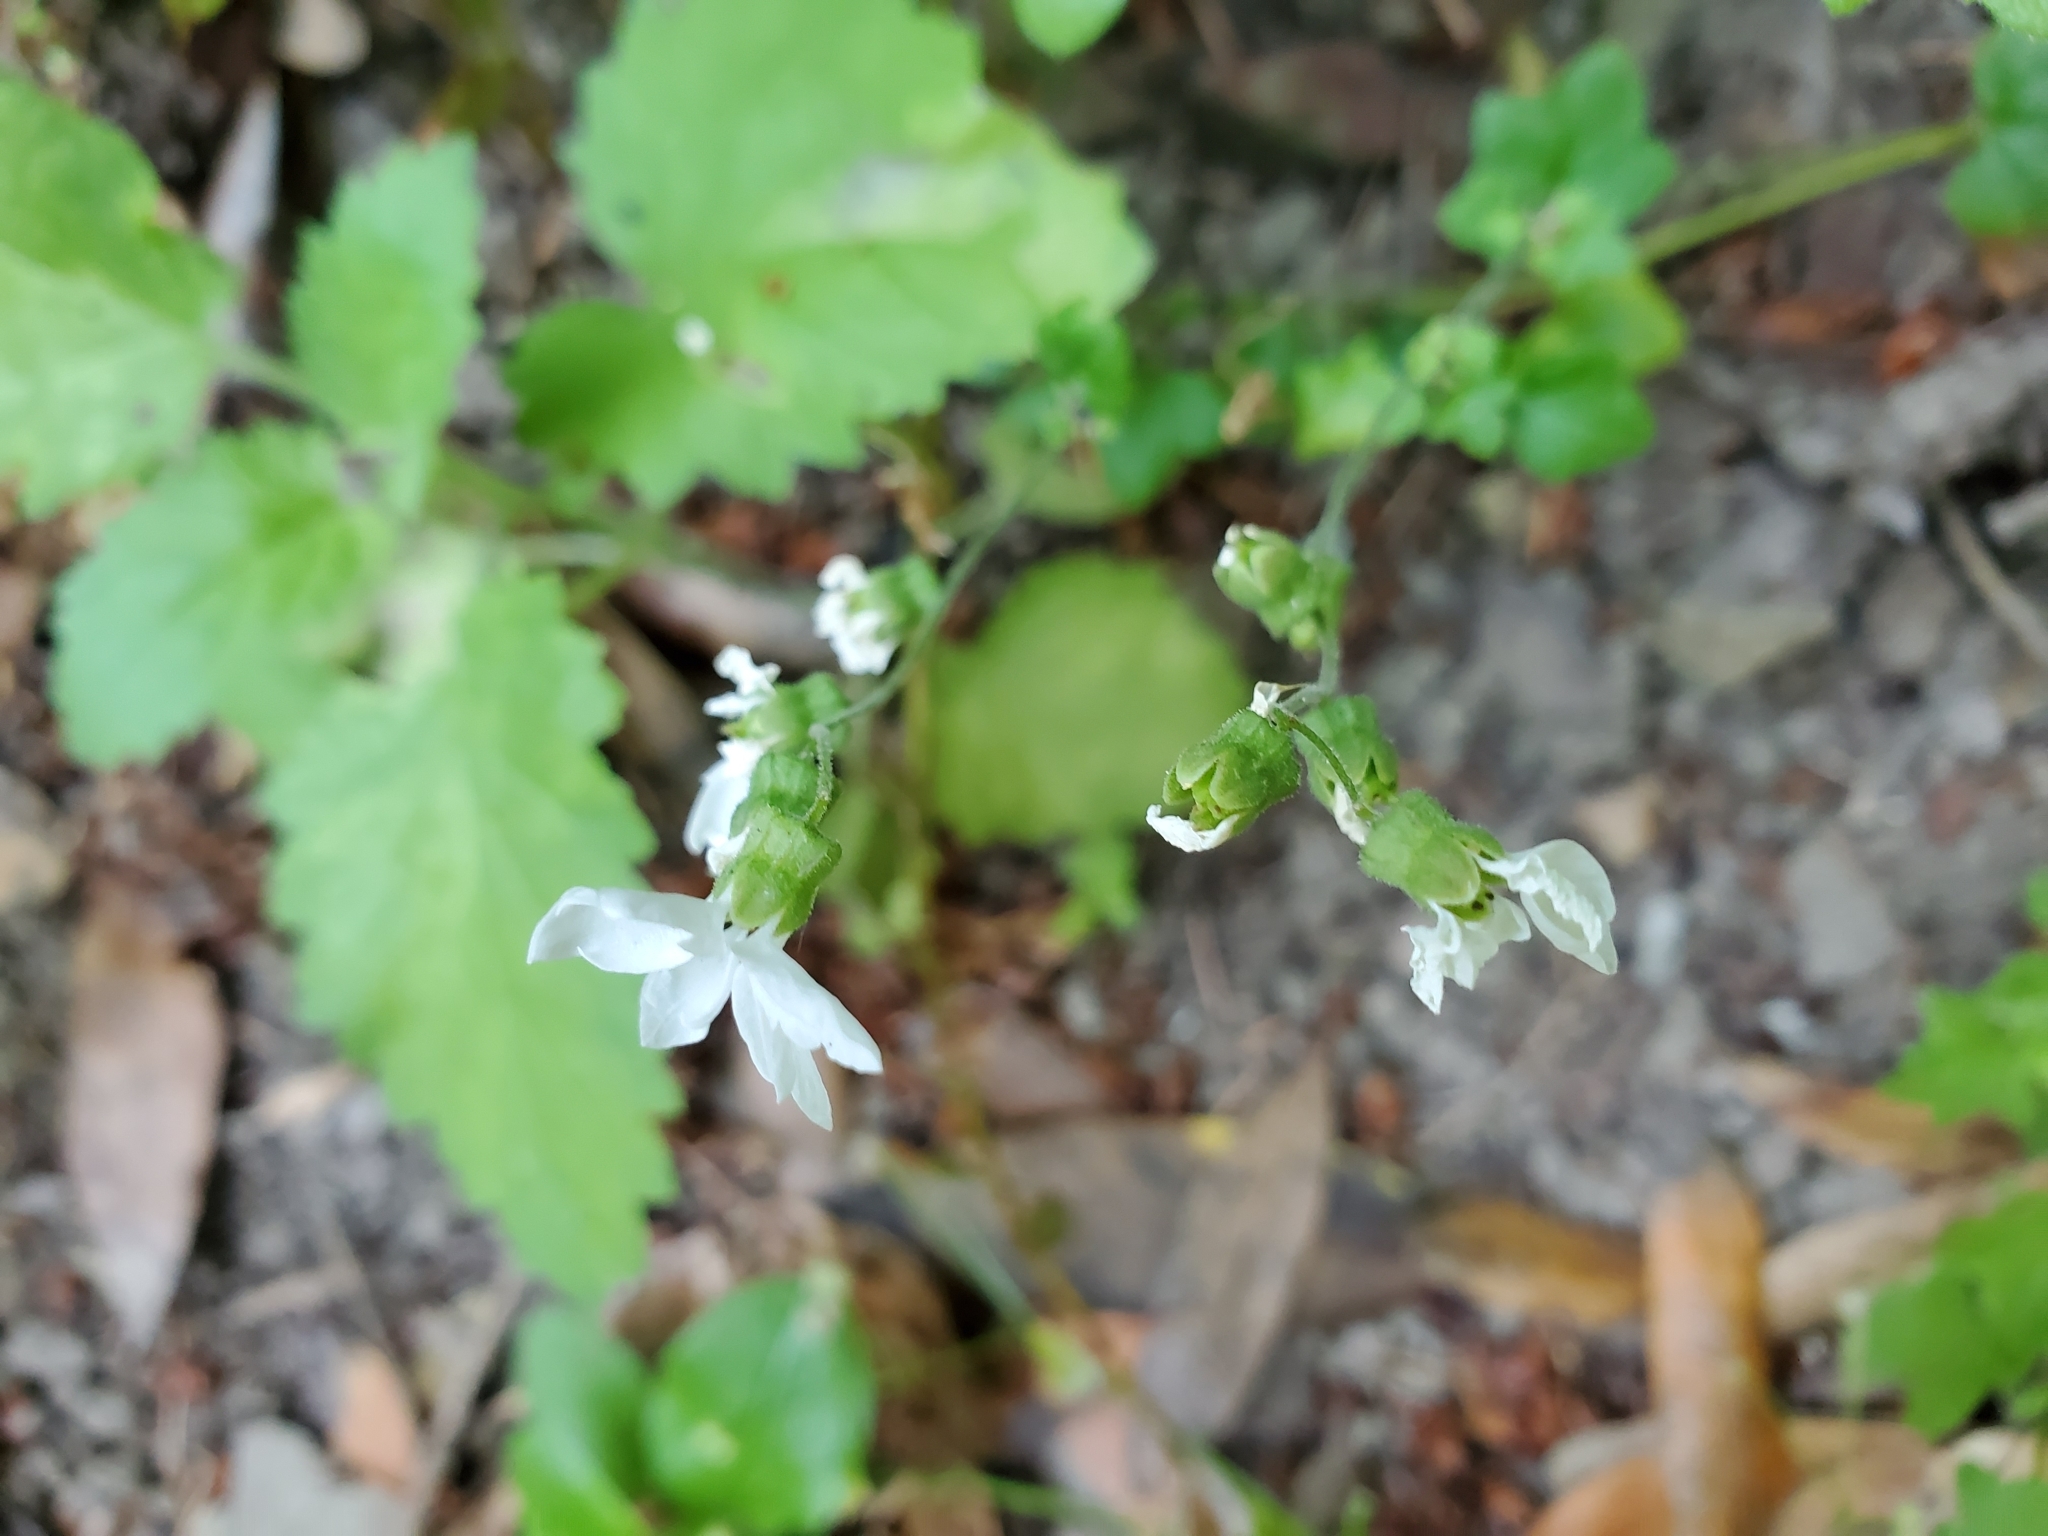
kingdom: Plantae
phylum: Tracheophyta
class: Magnoliopsida
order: Saxifragales
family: Saxifragaceae
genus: Lithophragma
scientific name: Lithophragma heterophyllum
